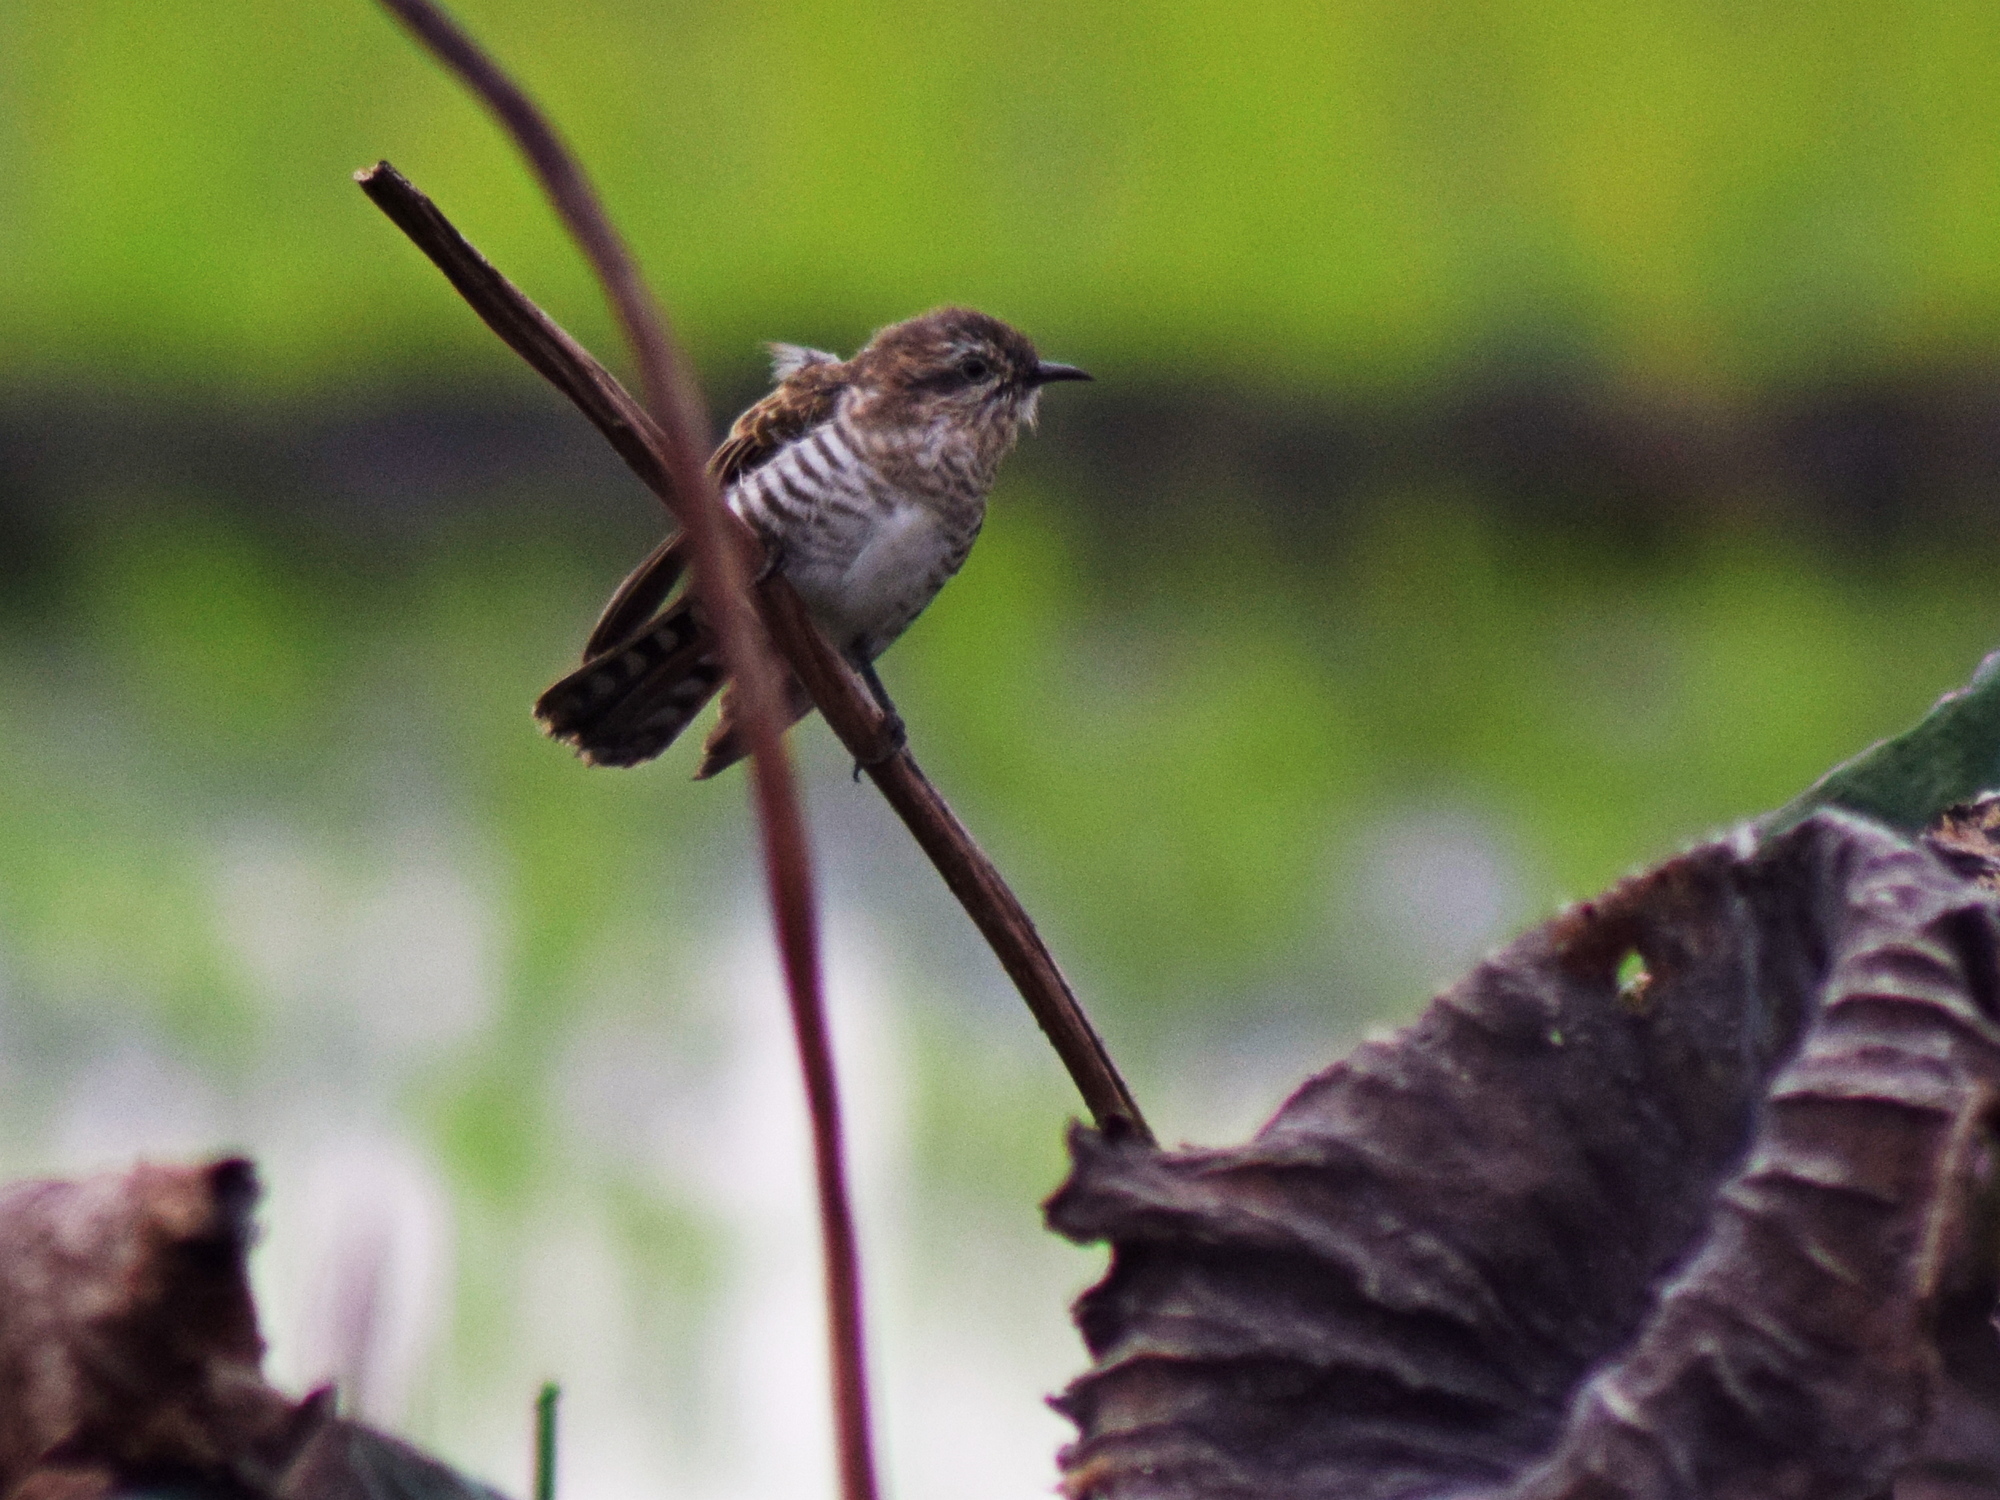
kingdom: Animalia
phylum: Chordata
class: Aves
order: Cuculiformes
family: Cuculidae
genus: Chrysococcyx
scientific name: Chrysococcyx basalis
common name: Horsfield's bronze cuckoo
